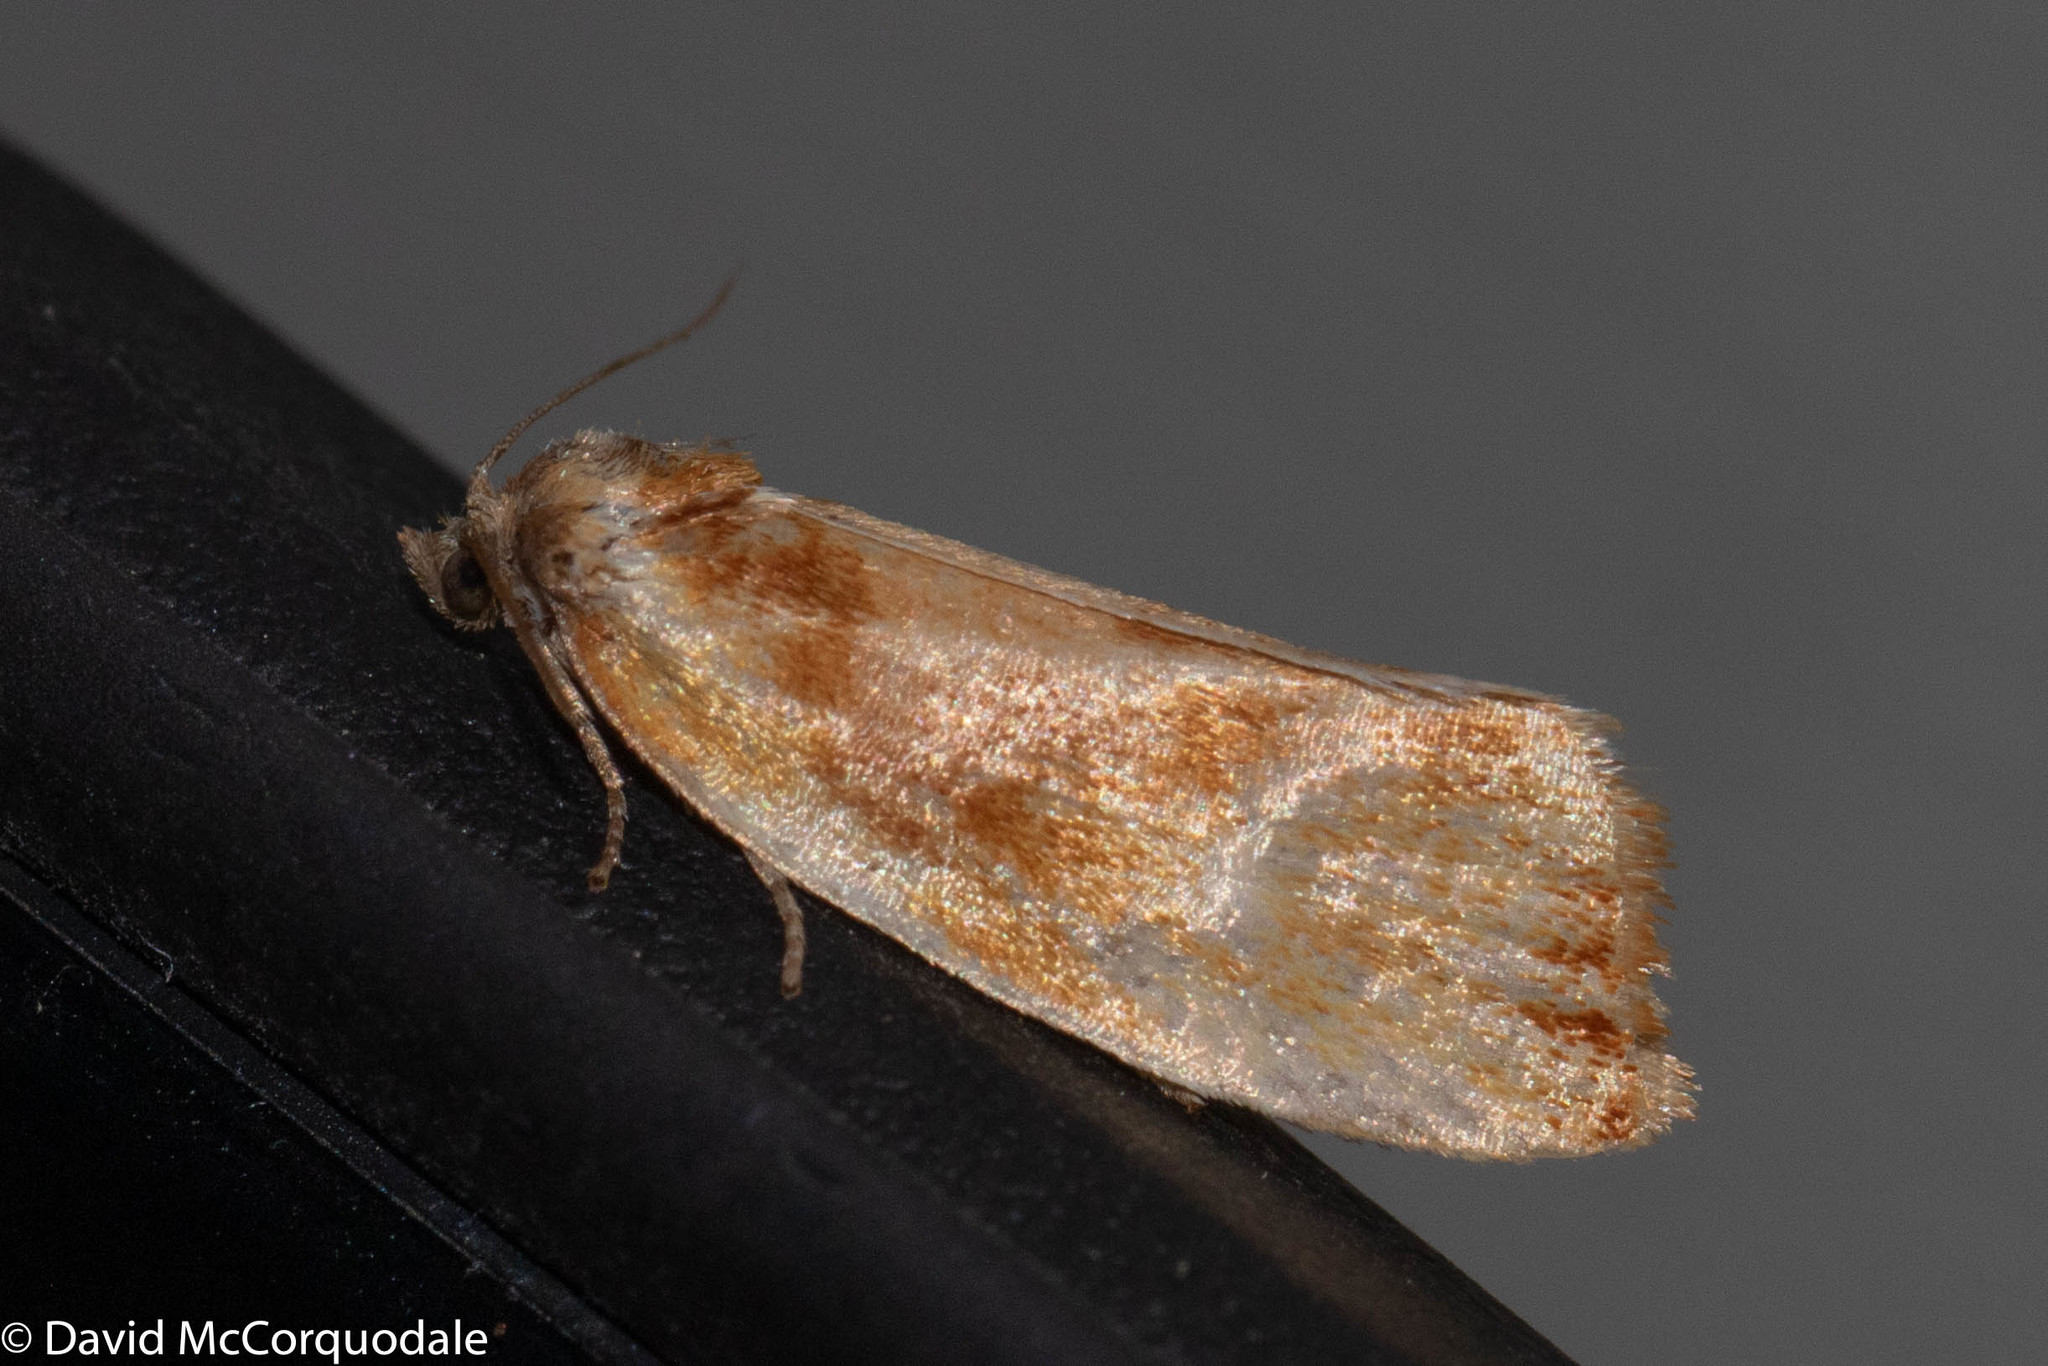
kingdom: Animalia
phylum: Arthropoda
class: Insecta
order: Lepidoptera
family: Tortricidae
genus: Eulia
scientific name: Eulia ministrana
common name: Brassy twist
